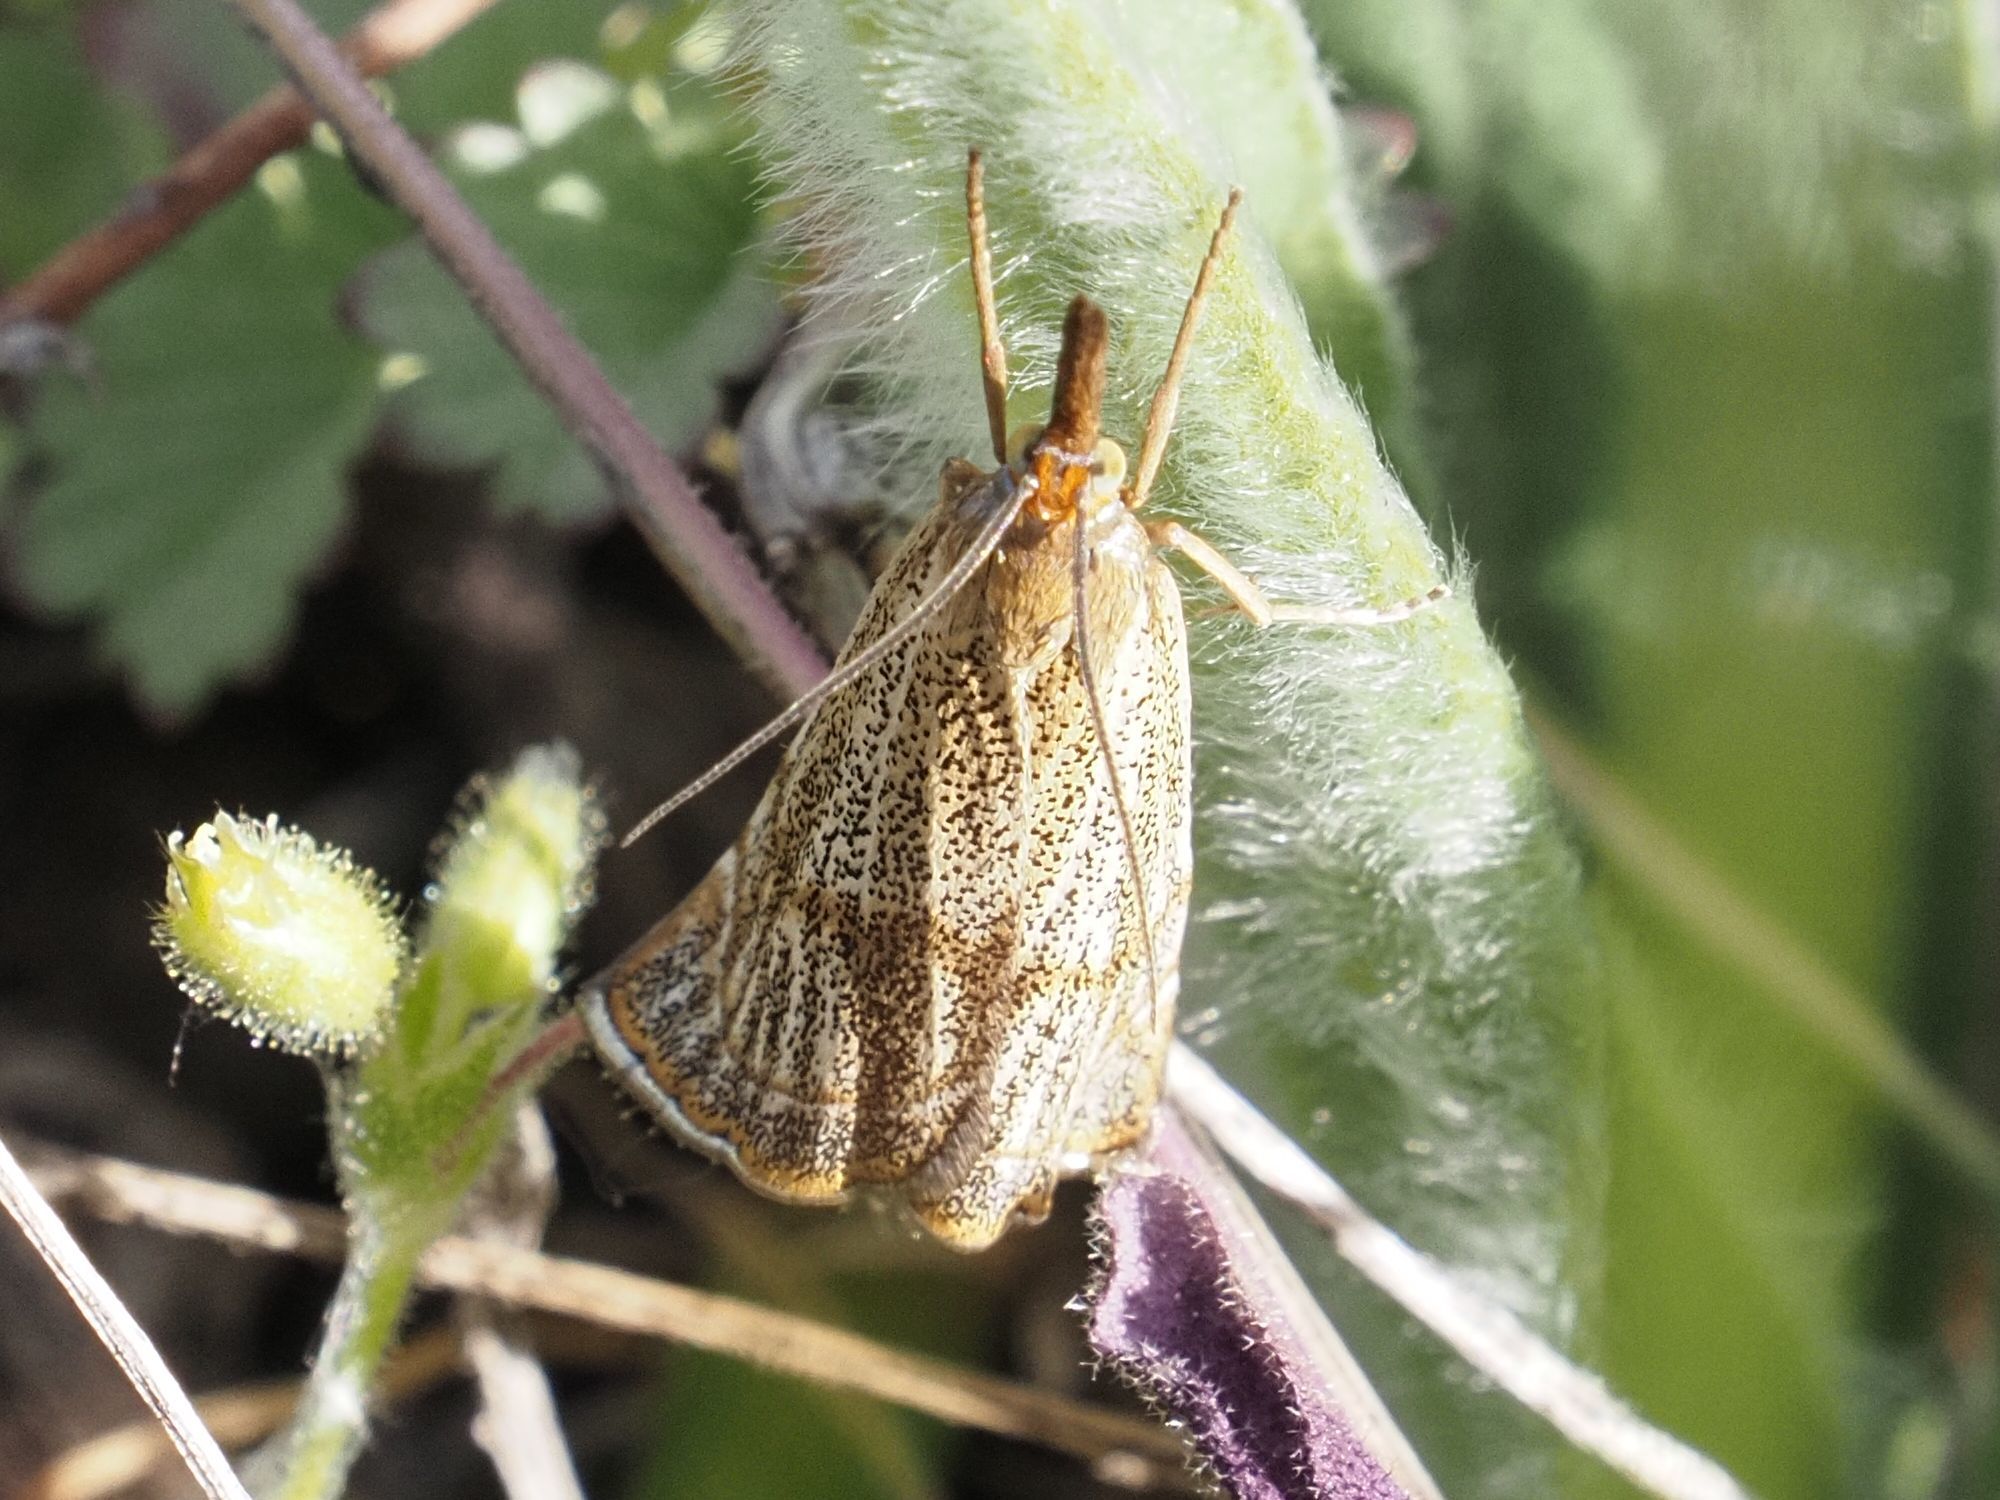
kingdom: Animalia
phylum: Arthropoda
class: Insecta
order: Lepidoptera
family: Crambidae
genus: Thisanotia
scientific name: Thisanotia chrysonuchella
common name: Powdered grass-veneer
